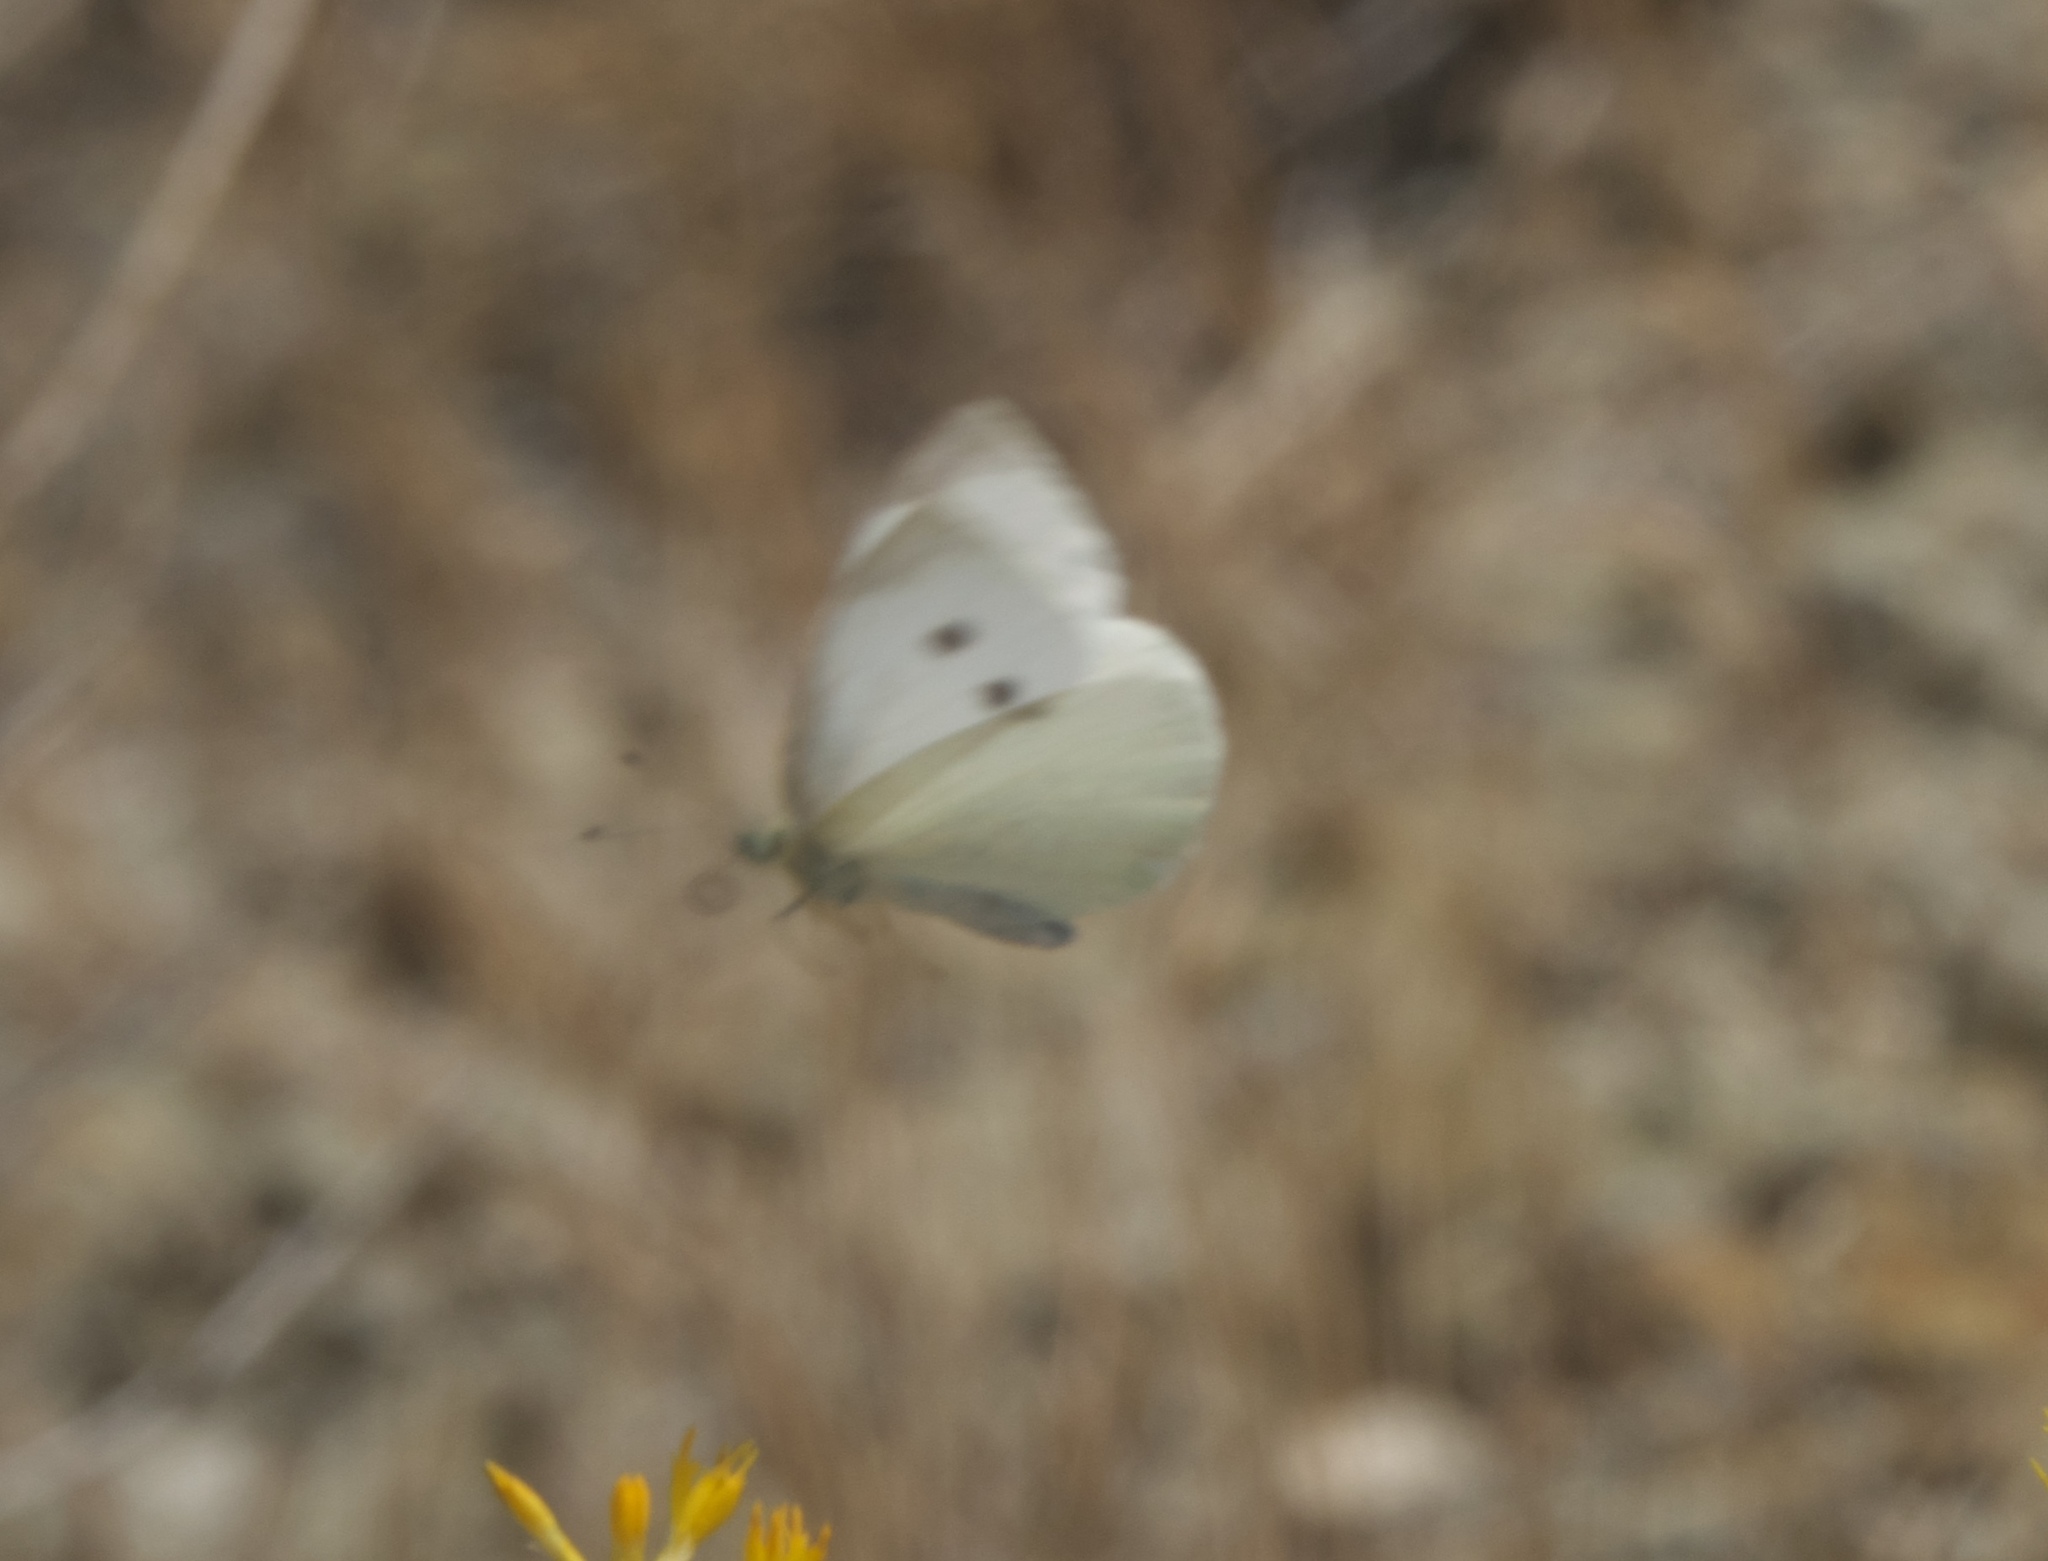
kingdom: Animalia
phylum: Arthropoda
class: Insecta
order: Lepidoptera
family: Pieridae
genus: Pieris
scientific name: Pieris rapae
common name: Small white
